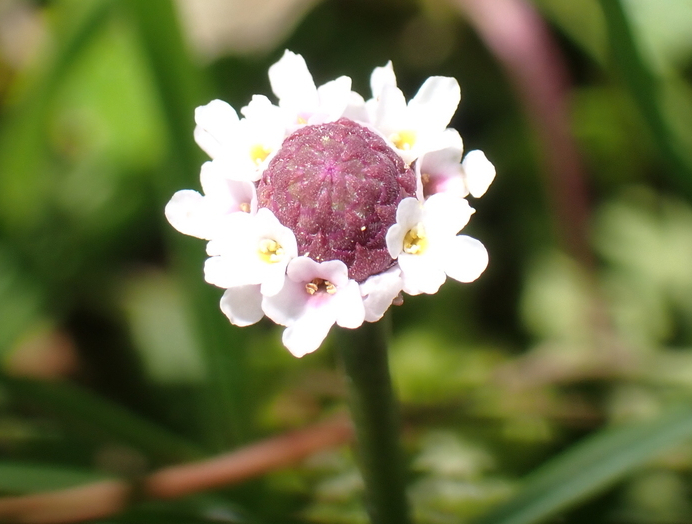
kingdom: Plantae
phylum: Tracheophyta
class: Magnoliopsida
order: Lamiales
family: Verbenaceae
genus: Phyla
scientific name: Phyla nodiflora
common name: Frogfruit
